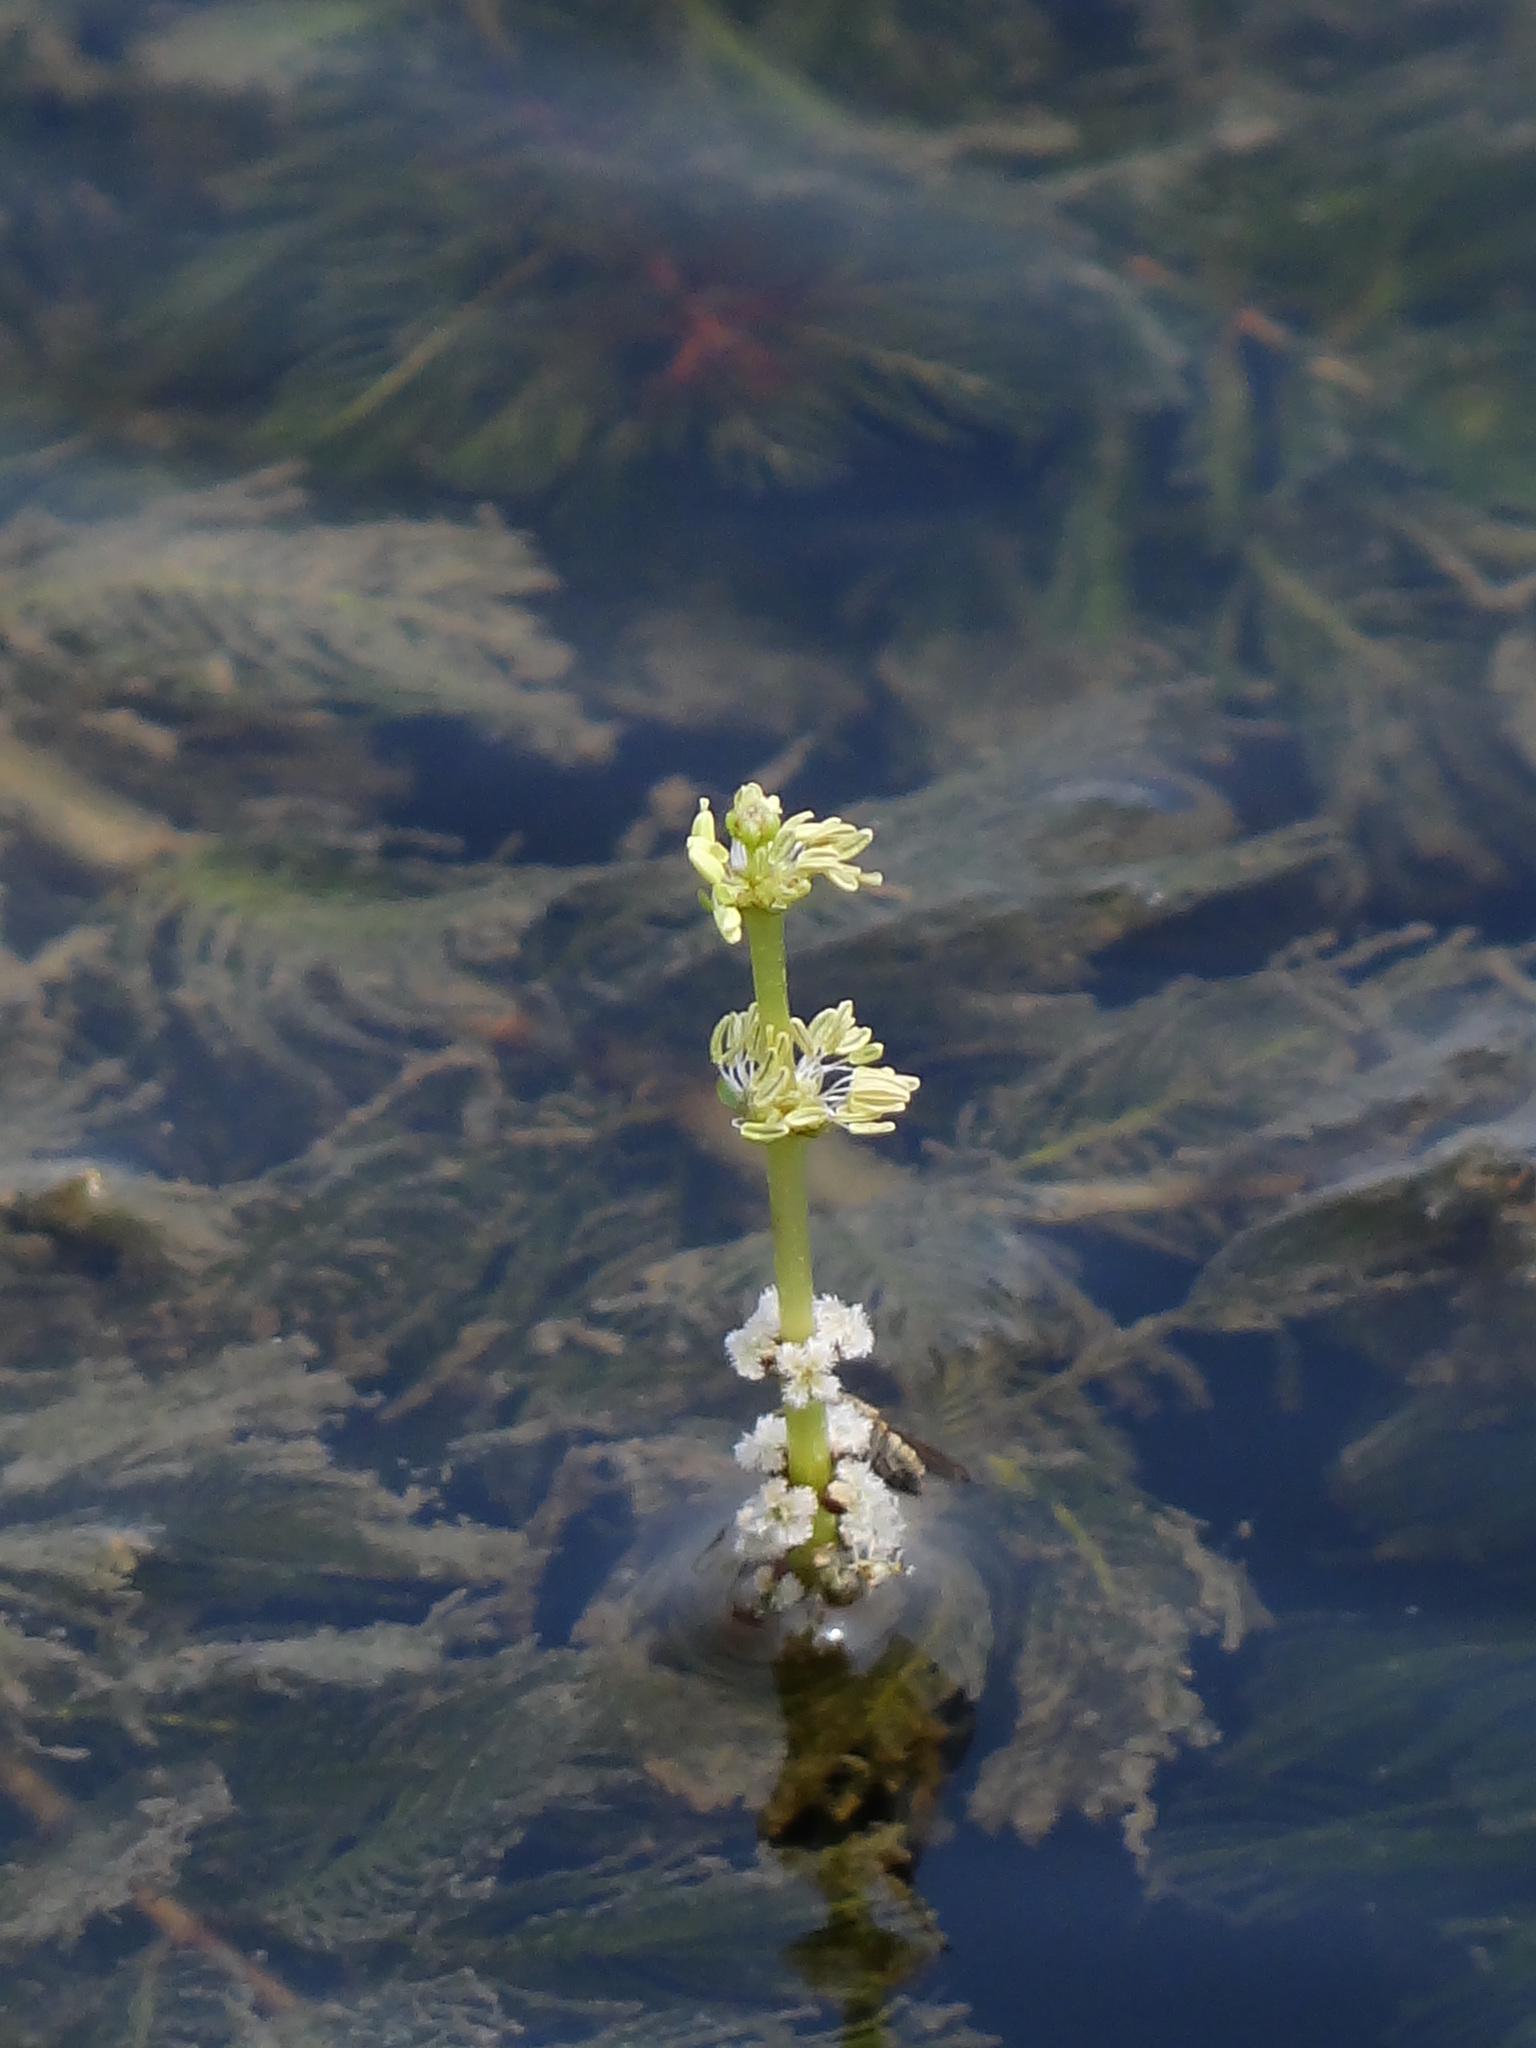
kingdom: Plantae
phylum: Tracheophyta
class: Magnoliopsida
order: Saxifragales
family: Haloragaceae
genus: Myriophyllum
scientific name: Myriophyllum spicatum
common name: Spiked water-milfoil
